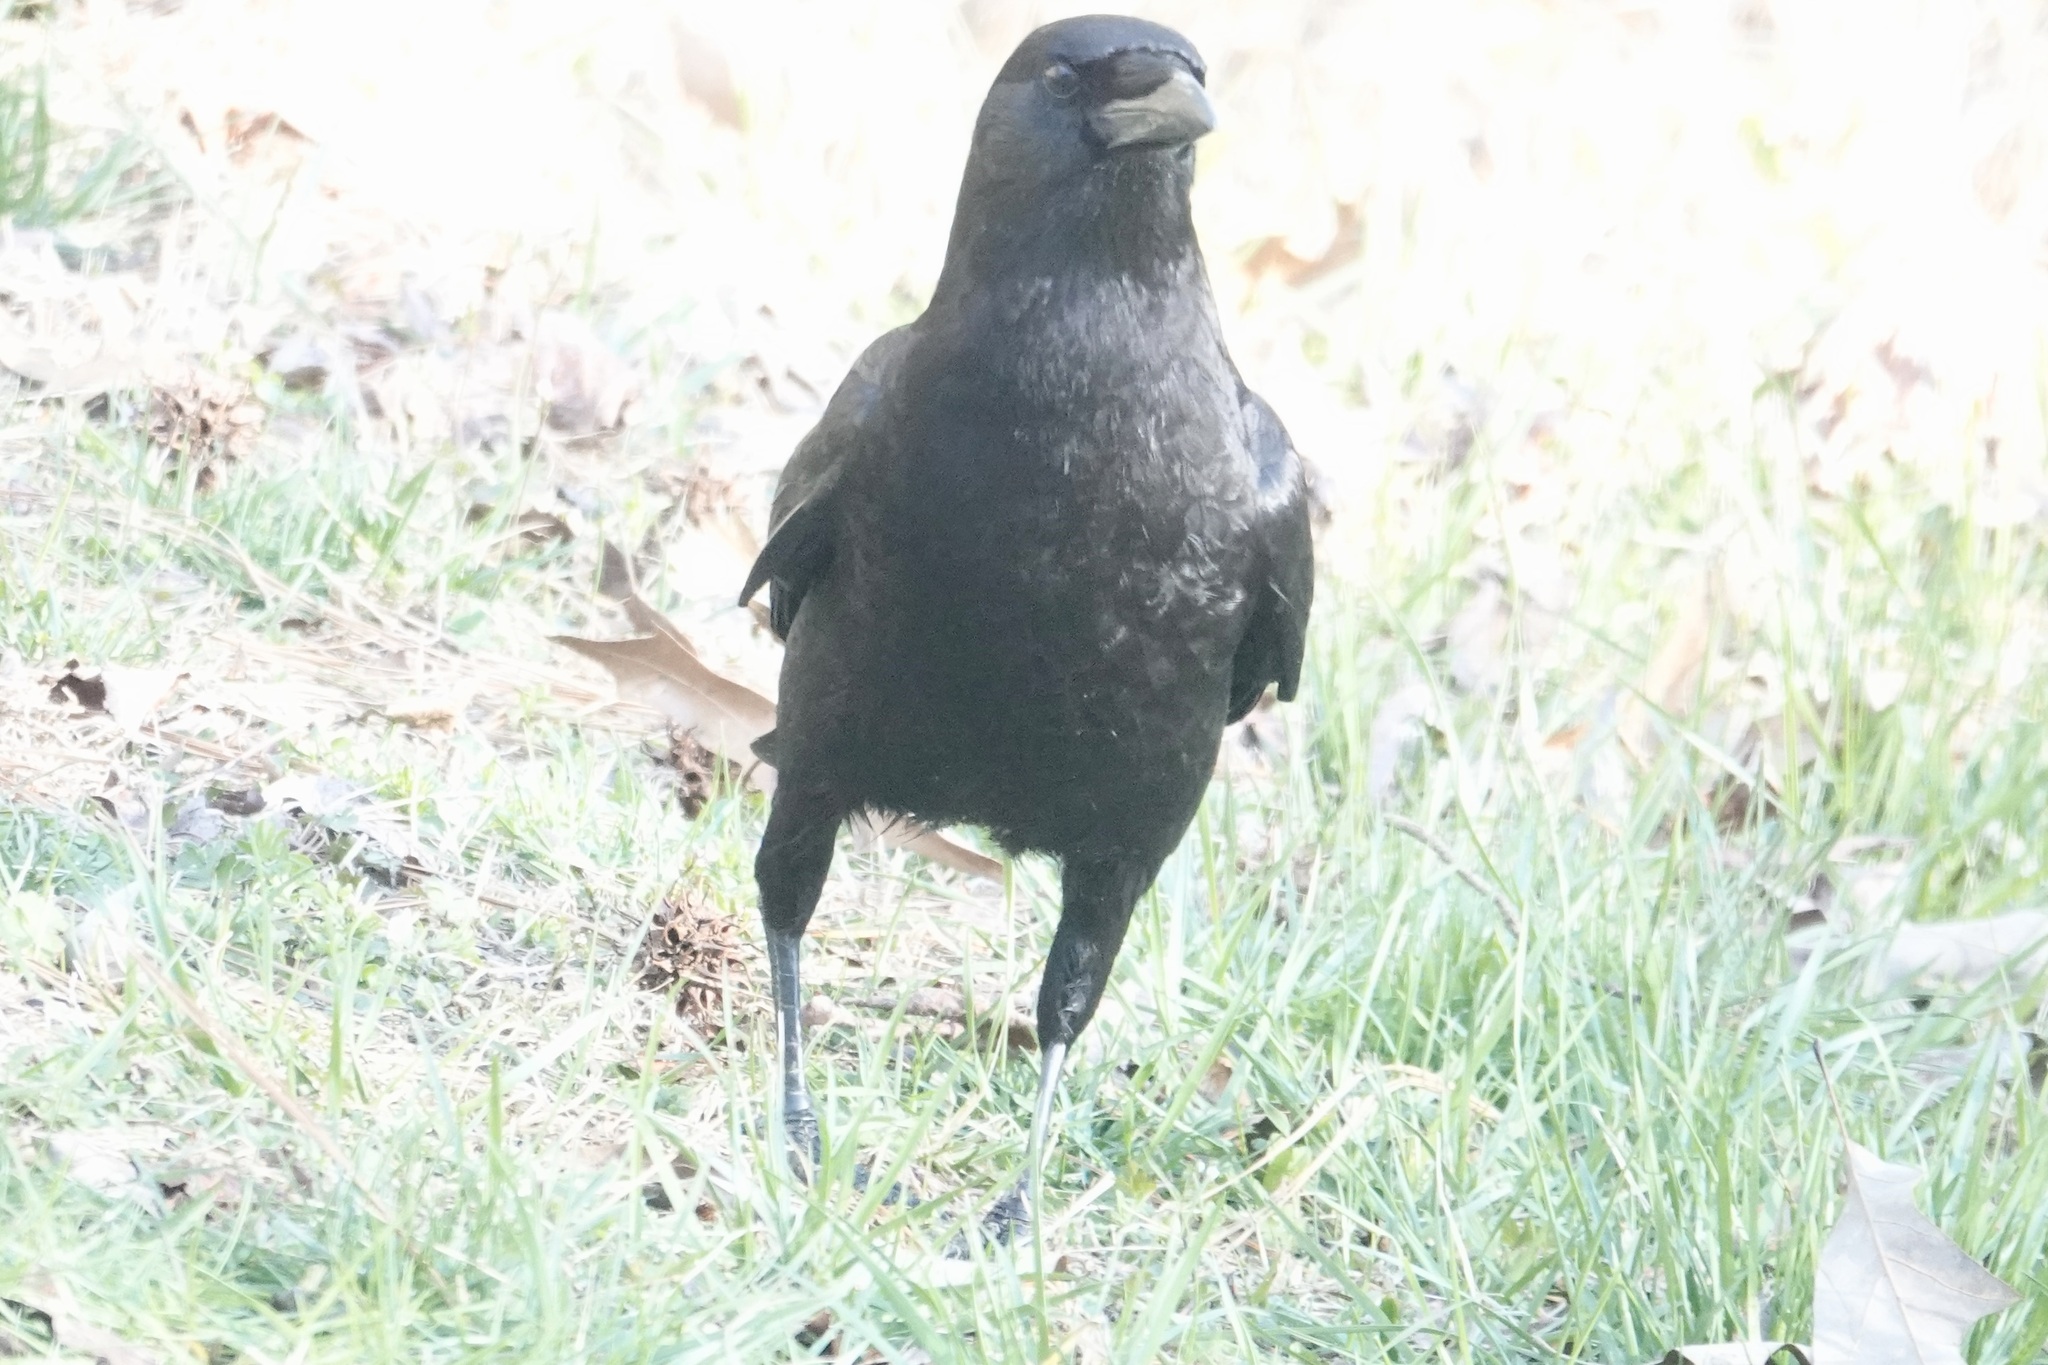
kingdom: Animalia
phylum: Chordata
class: Aves
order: Passeriformes
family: Corvidae
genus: Corvus
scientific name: Corvus brachyrhynchos
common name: American crow
